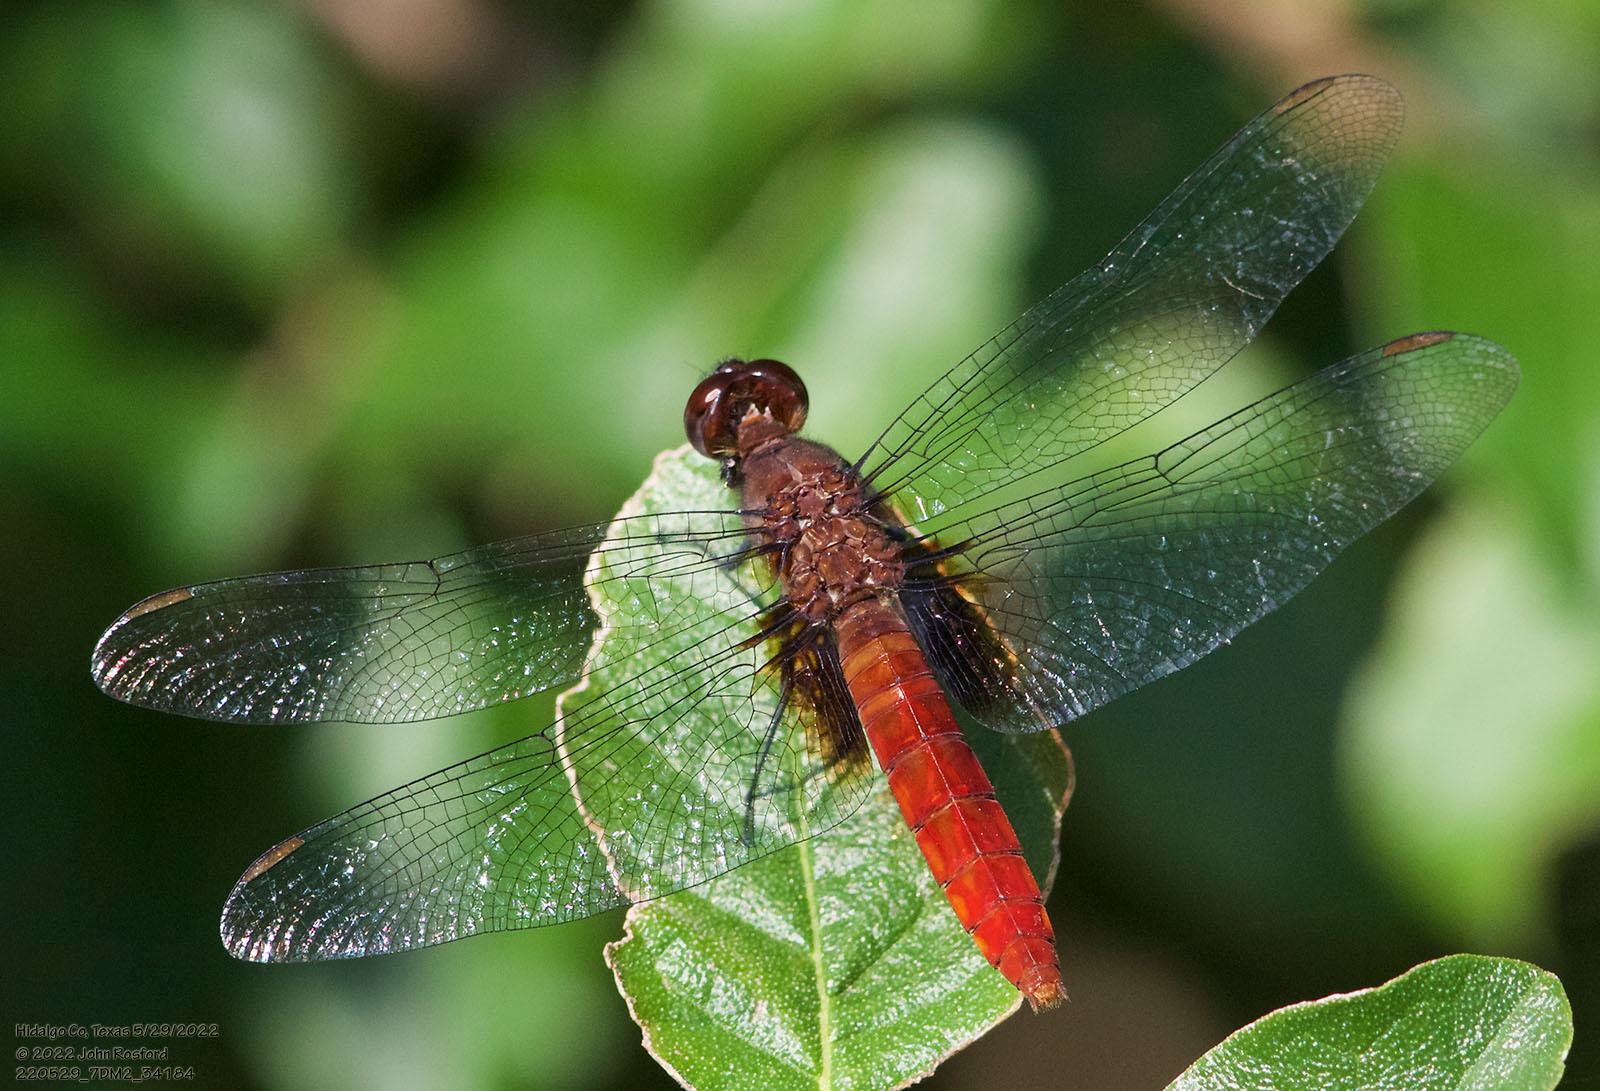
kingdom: Animalia
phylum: Arthropoda
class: Insecta
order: Odonata
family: Libellulidae
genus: Planiplax
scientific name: Planiplax sanguiniventris
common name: Mexican scarlet-tail
